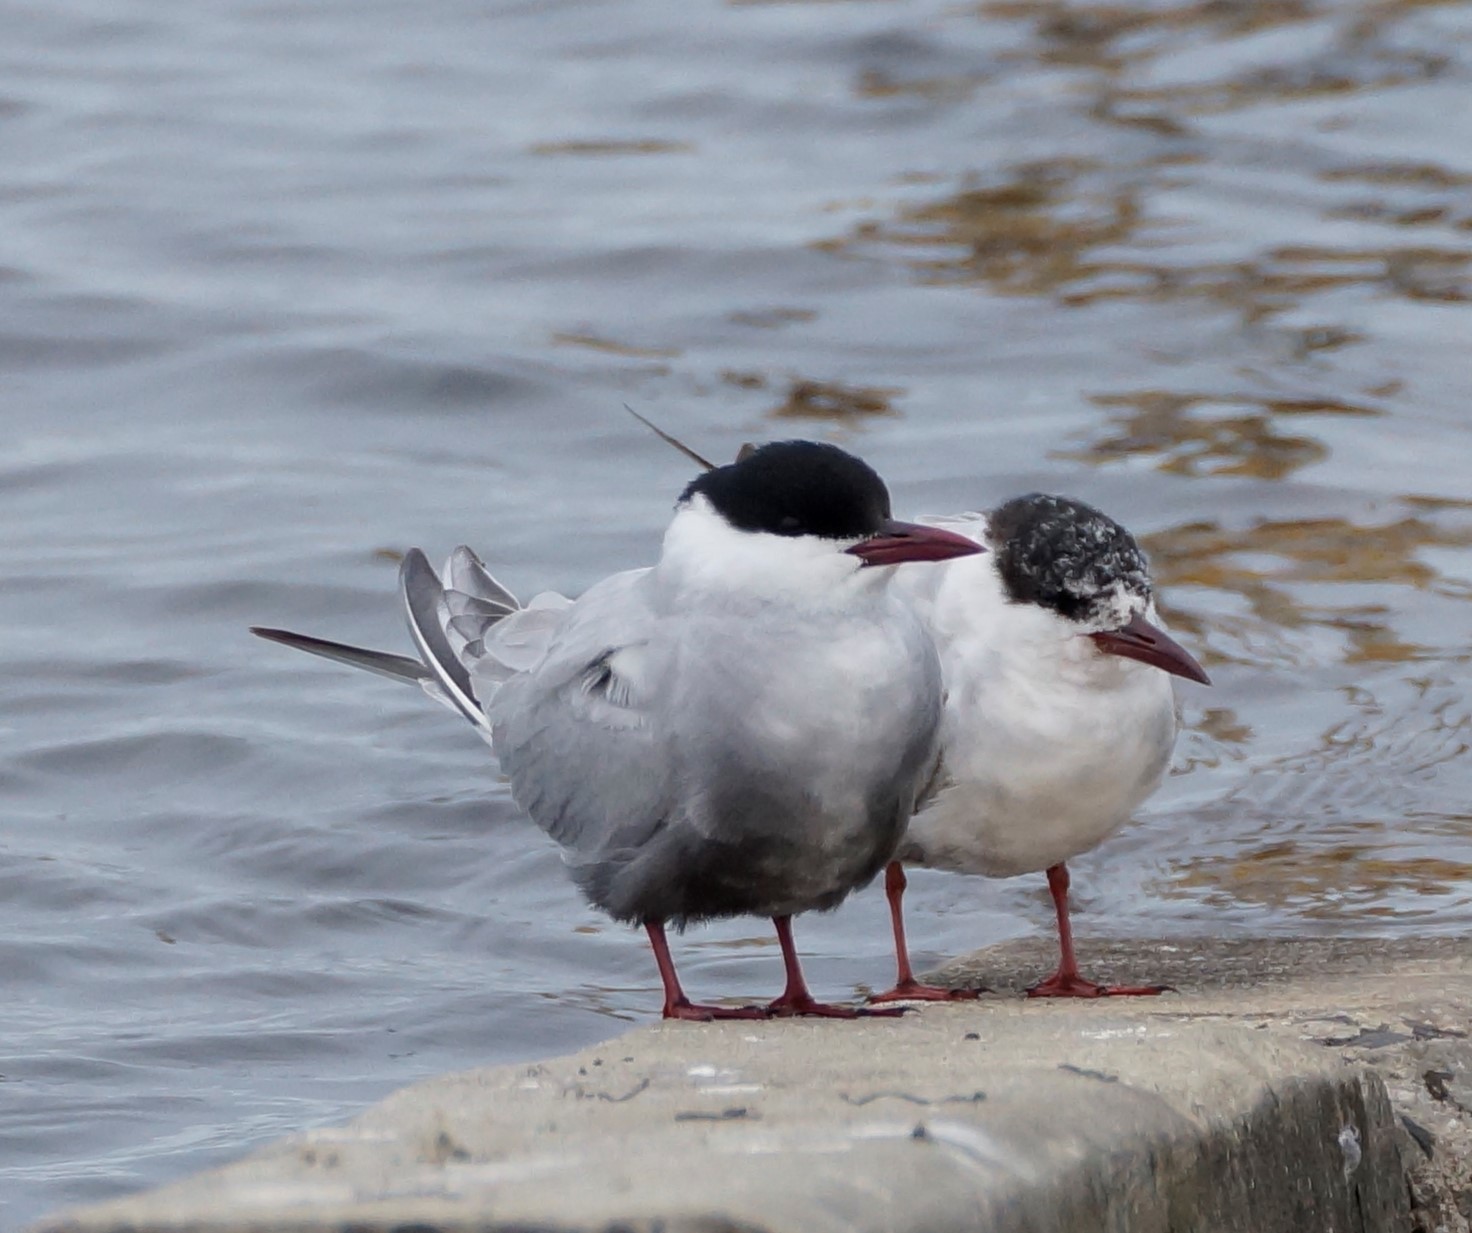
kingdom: Animalia
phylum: Chordata
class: Aves
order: Charadriiformes
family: Laridae
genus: Chlidonias
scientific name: Chlidonias hybrida
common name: Whiskered tern
